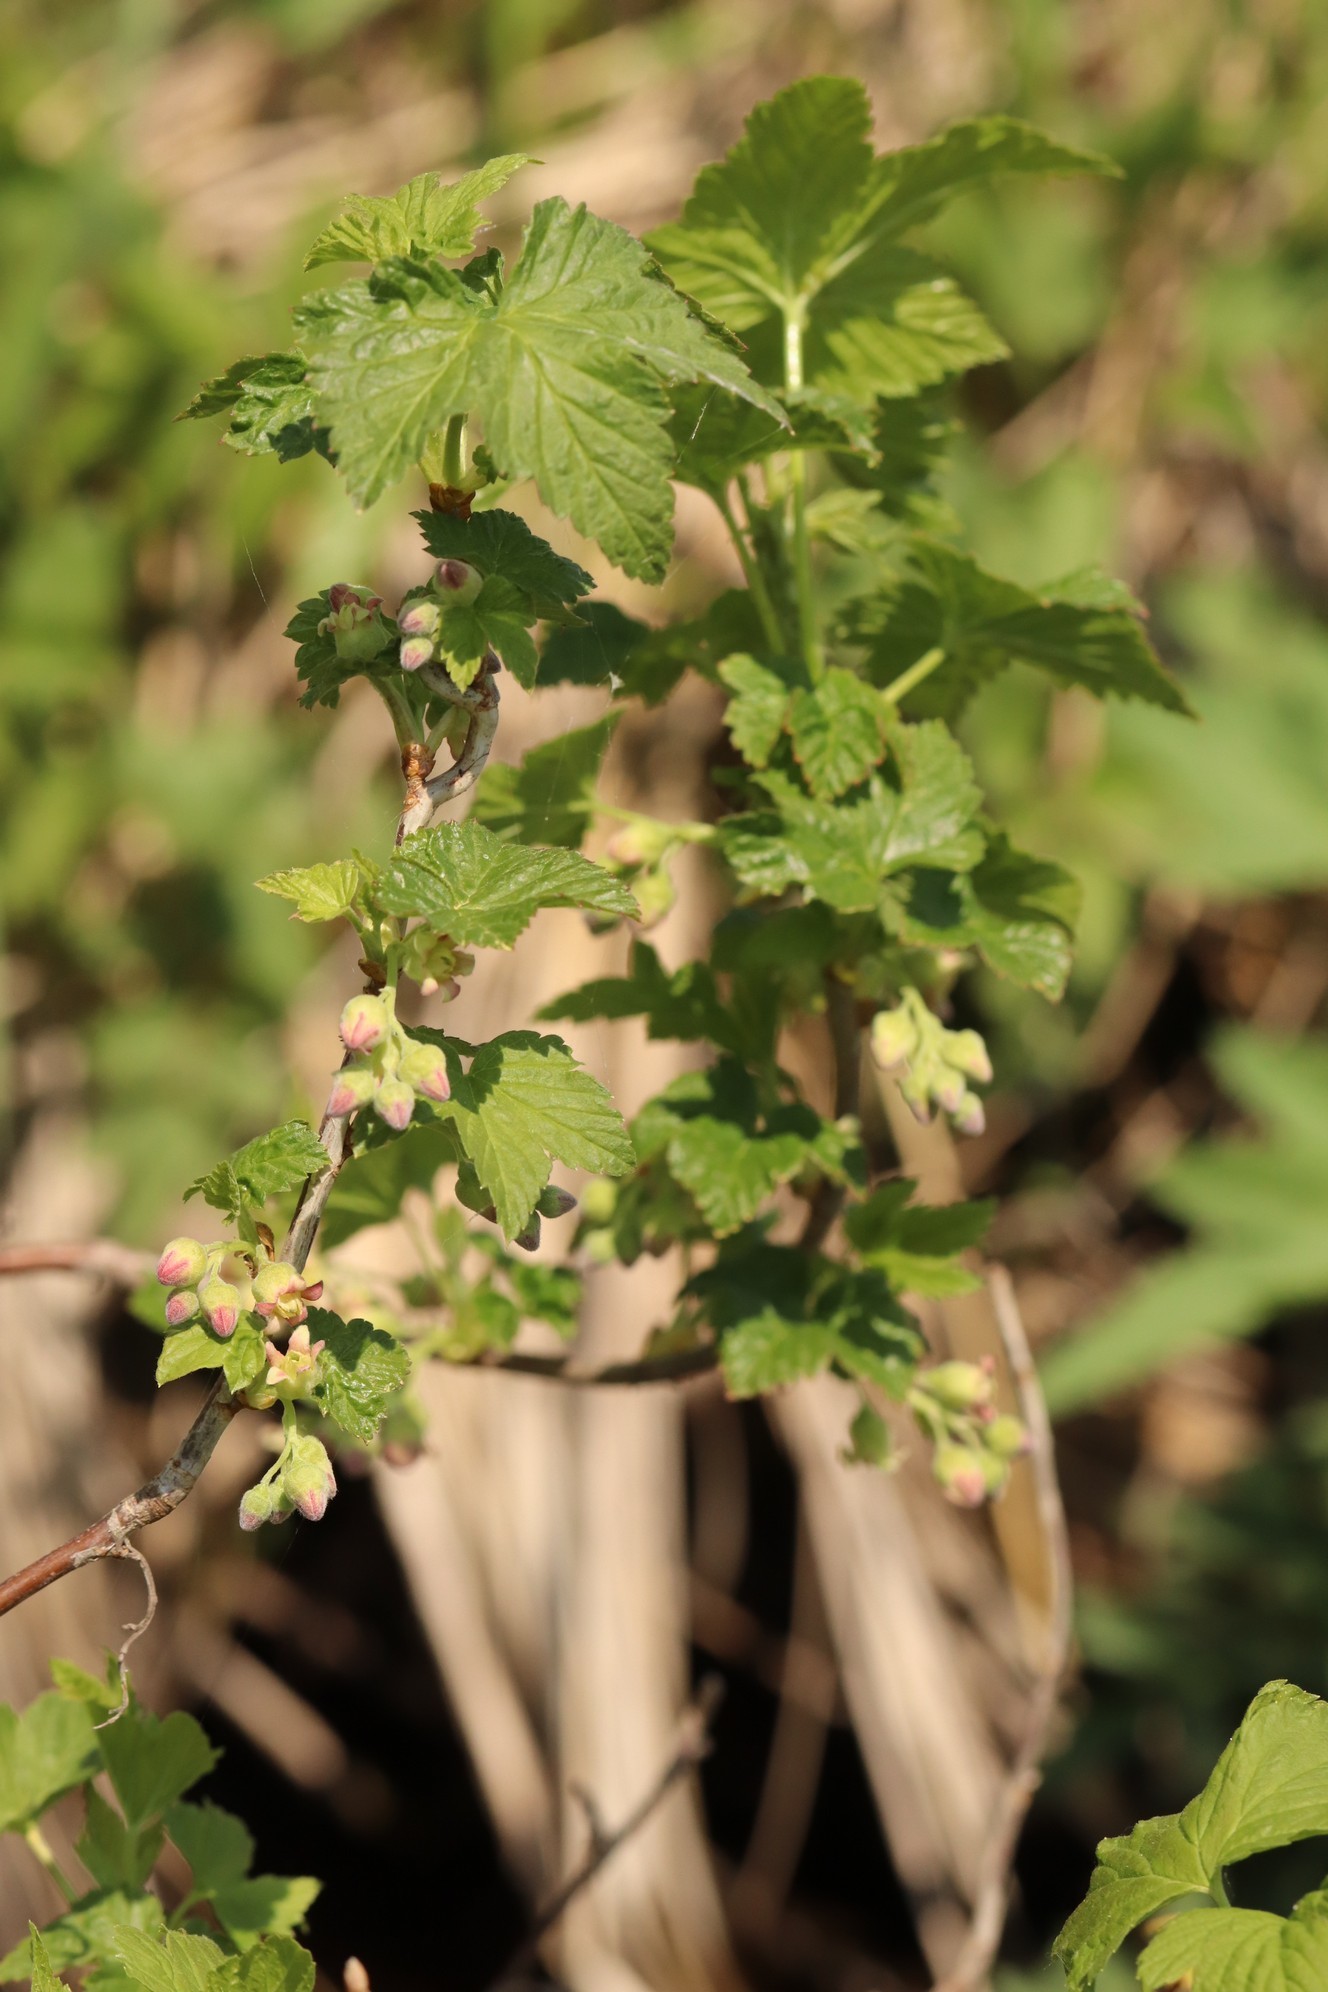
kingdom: Plantae
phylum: Tracheophyta
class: Magnoliopsida
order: Saxifragales
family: Grossulariaceae
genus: Ribes
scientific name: Ribes nigrum
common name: Black currant
